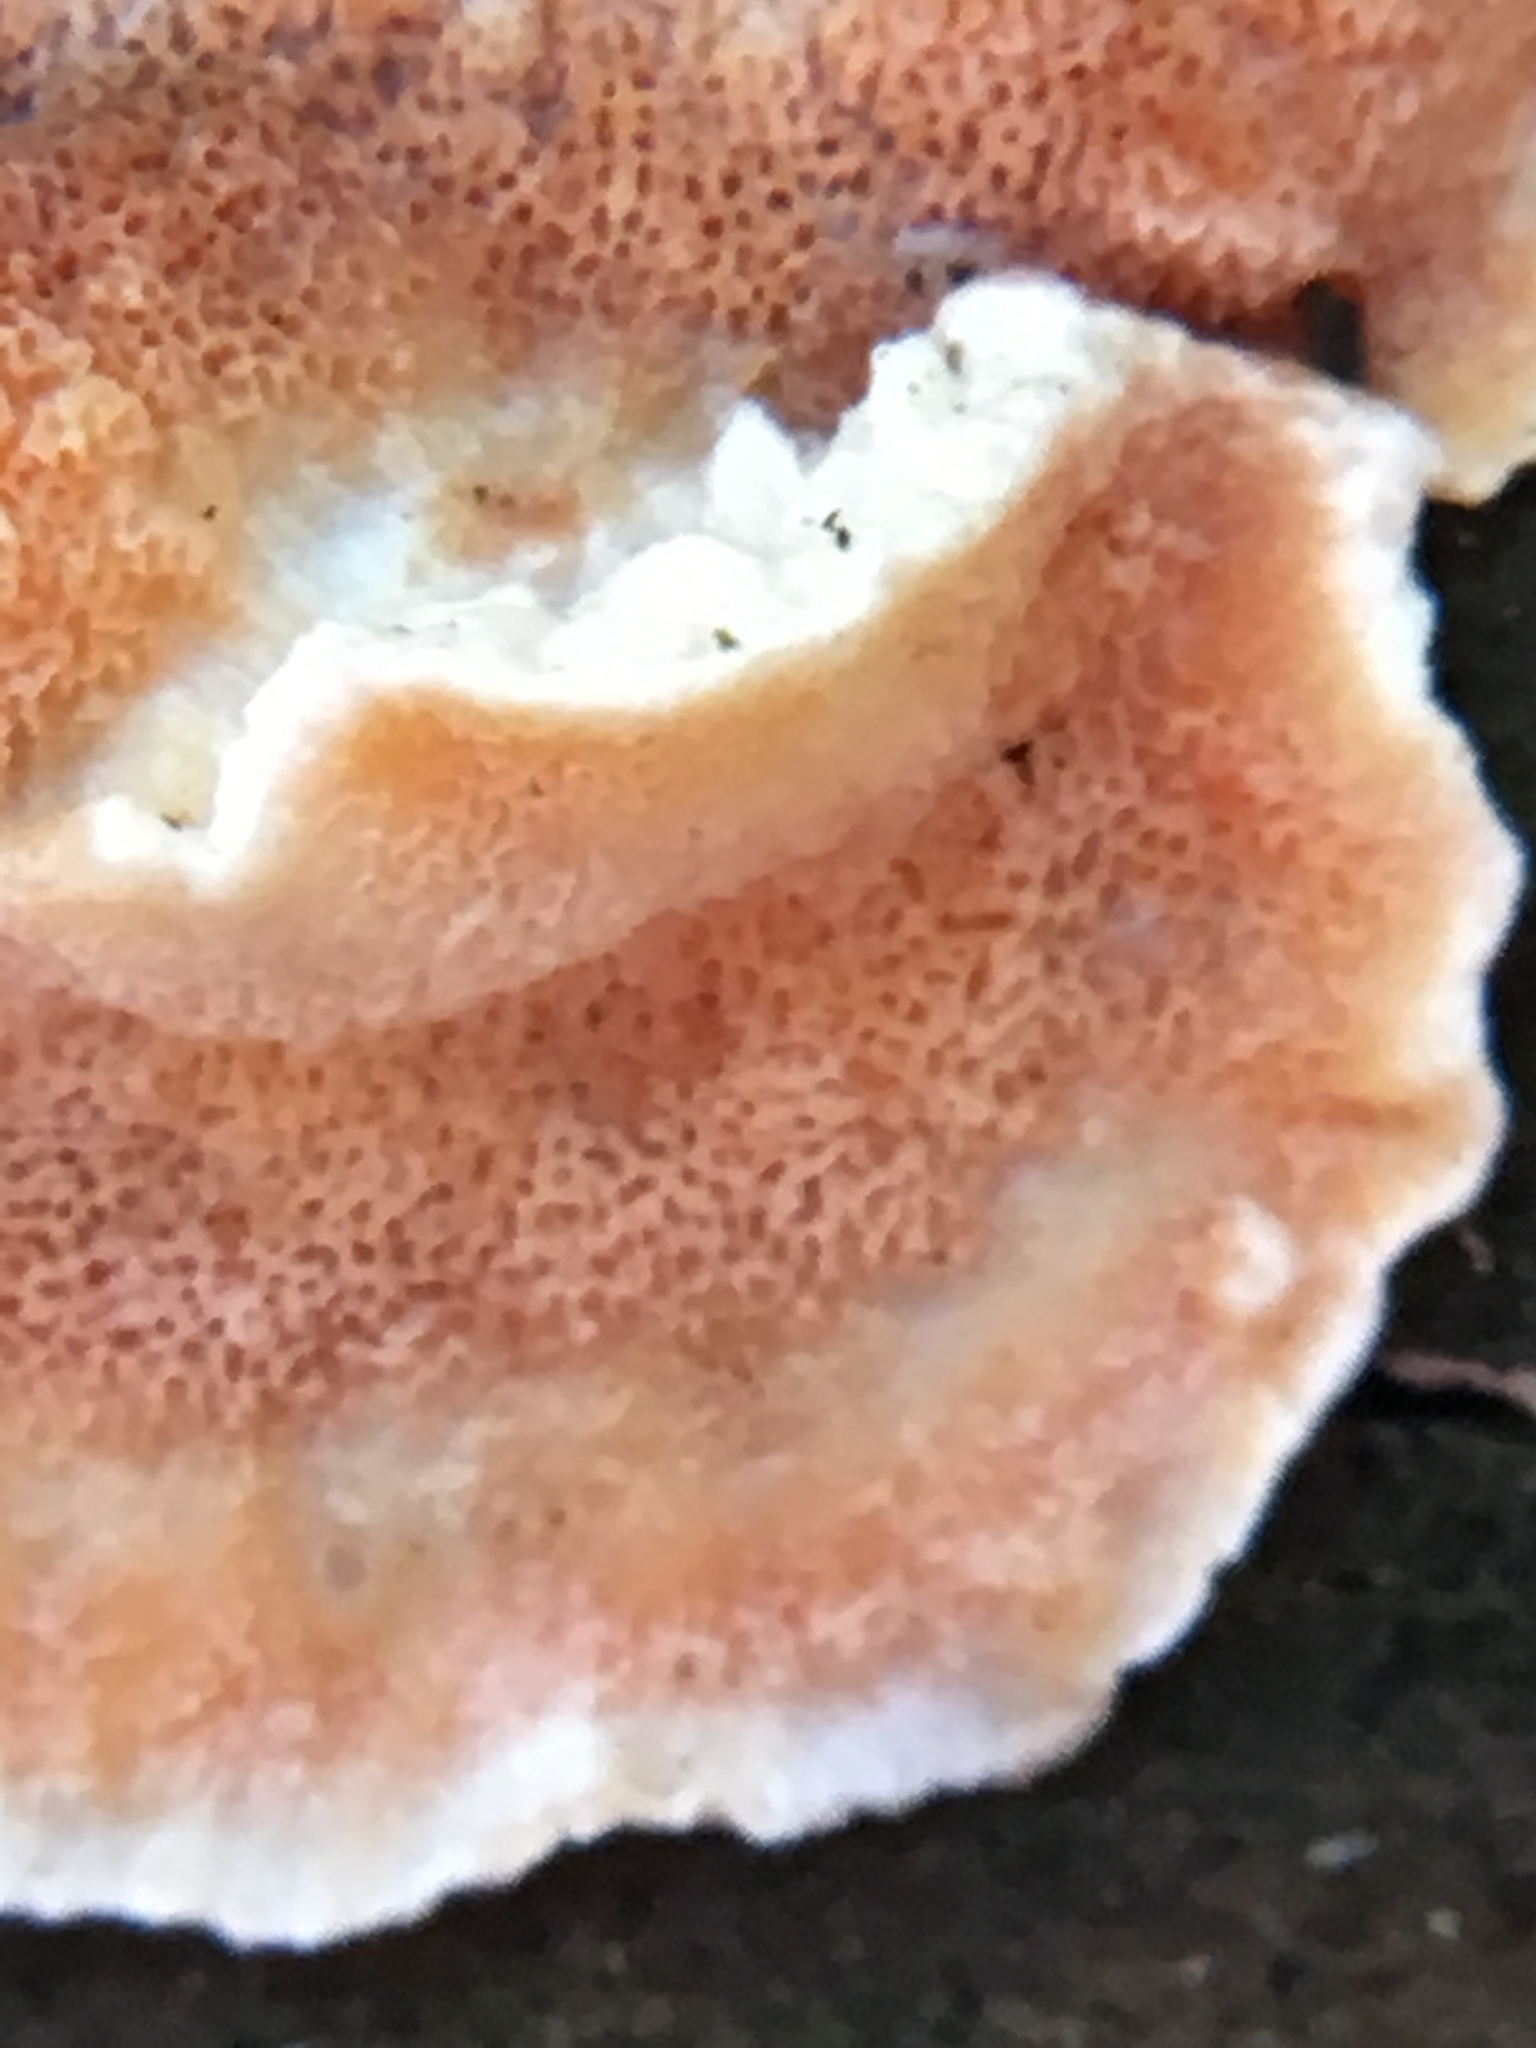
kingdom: Fungi
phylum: Basidiomycota
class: Agaricomycetes
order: Polyporales
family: Incrustoporiaceae
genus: Skeletocutis
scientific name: Skeletocutis amorpha
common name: Rusty crust
